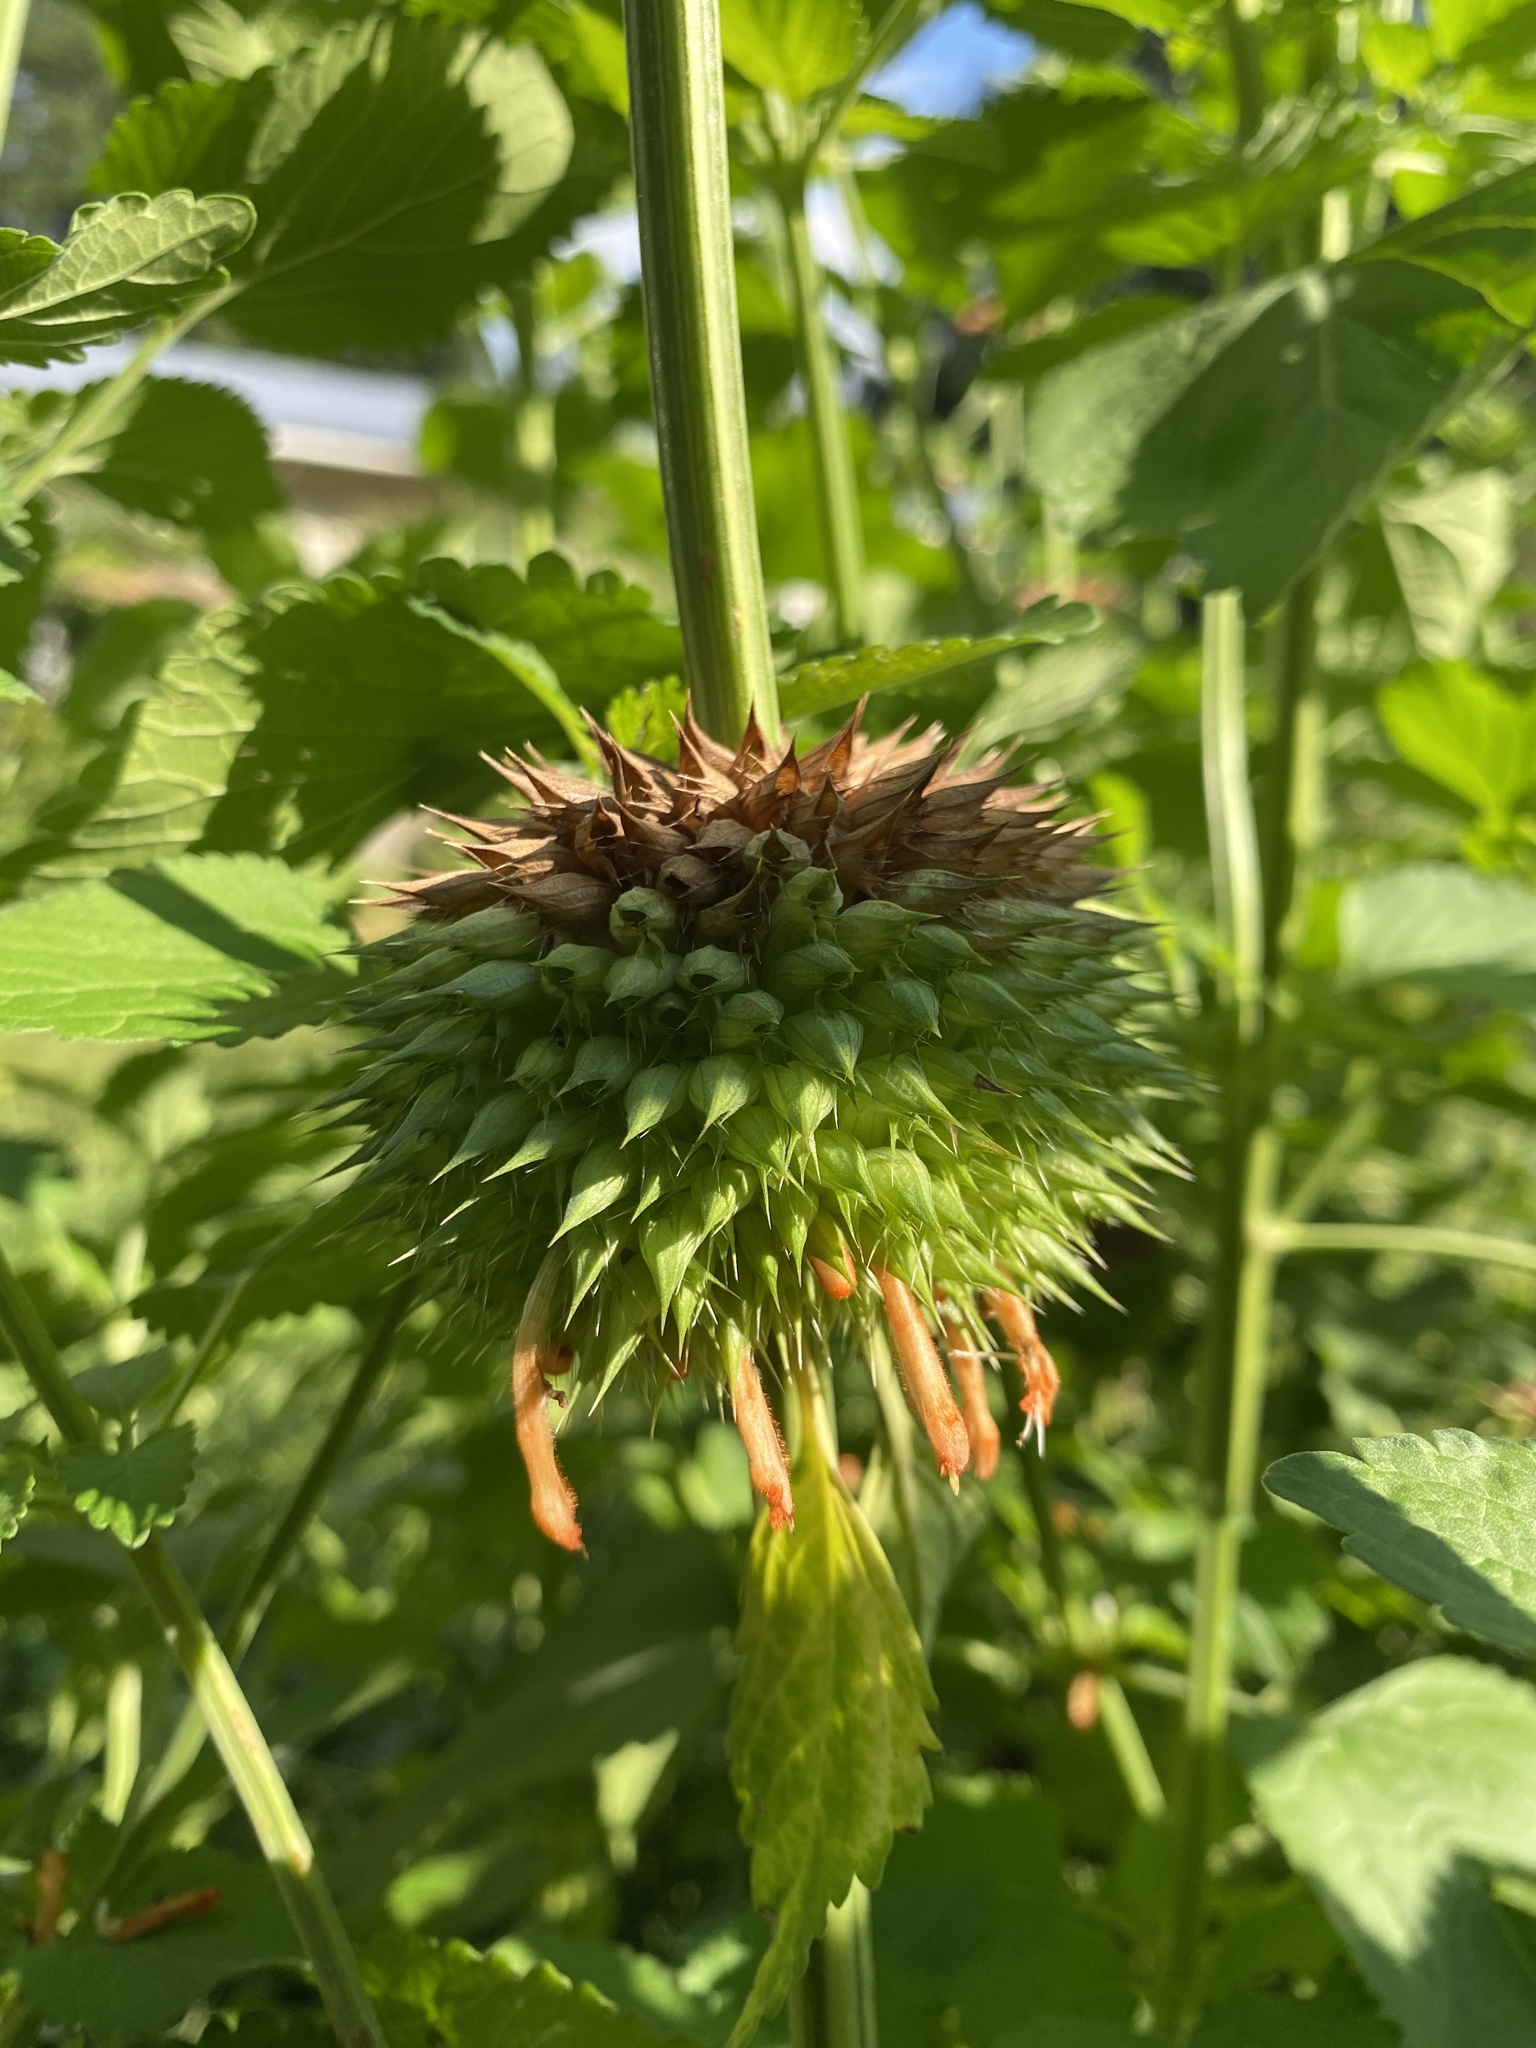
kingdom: Plantae
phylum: Tracheophyta
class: Magnoliopsida
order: Lamiales
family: Lamiaceae
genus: Leonotis
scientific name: Leonotis nepetifolia
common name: Christmas candlestick
